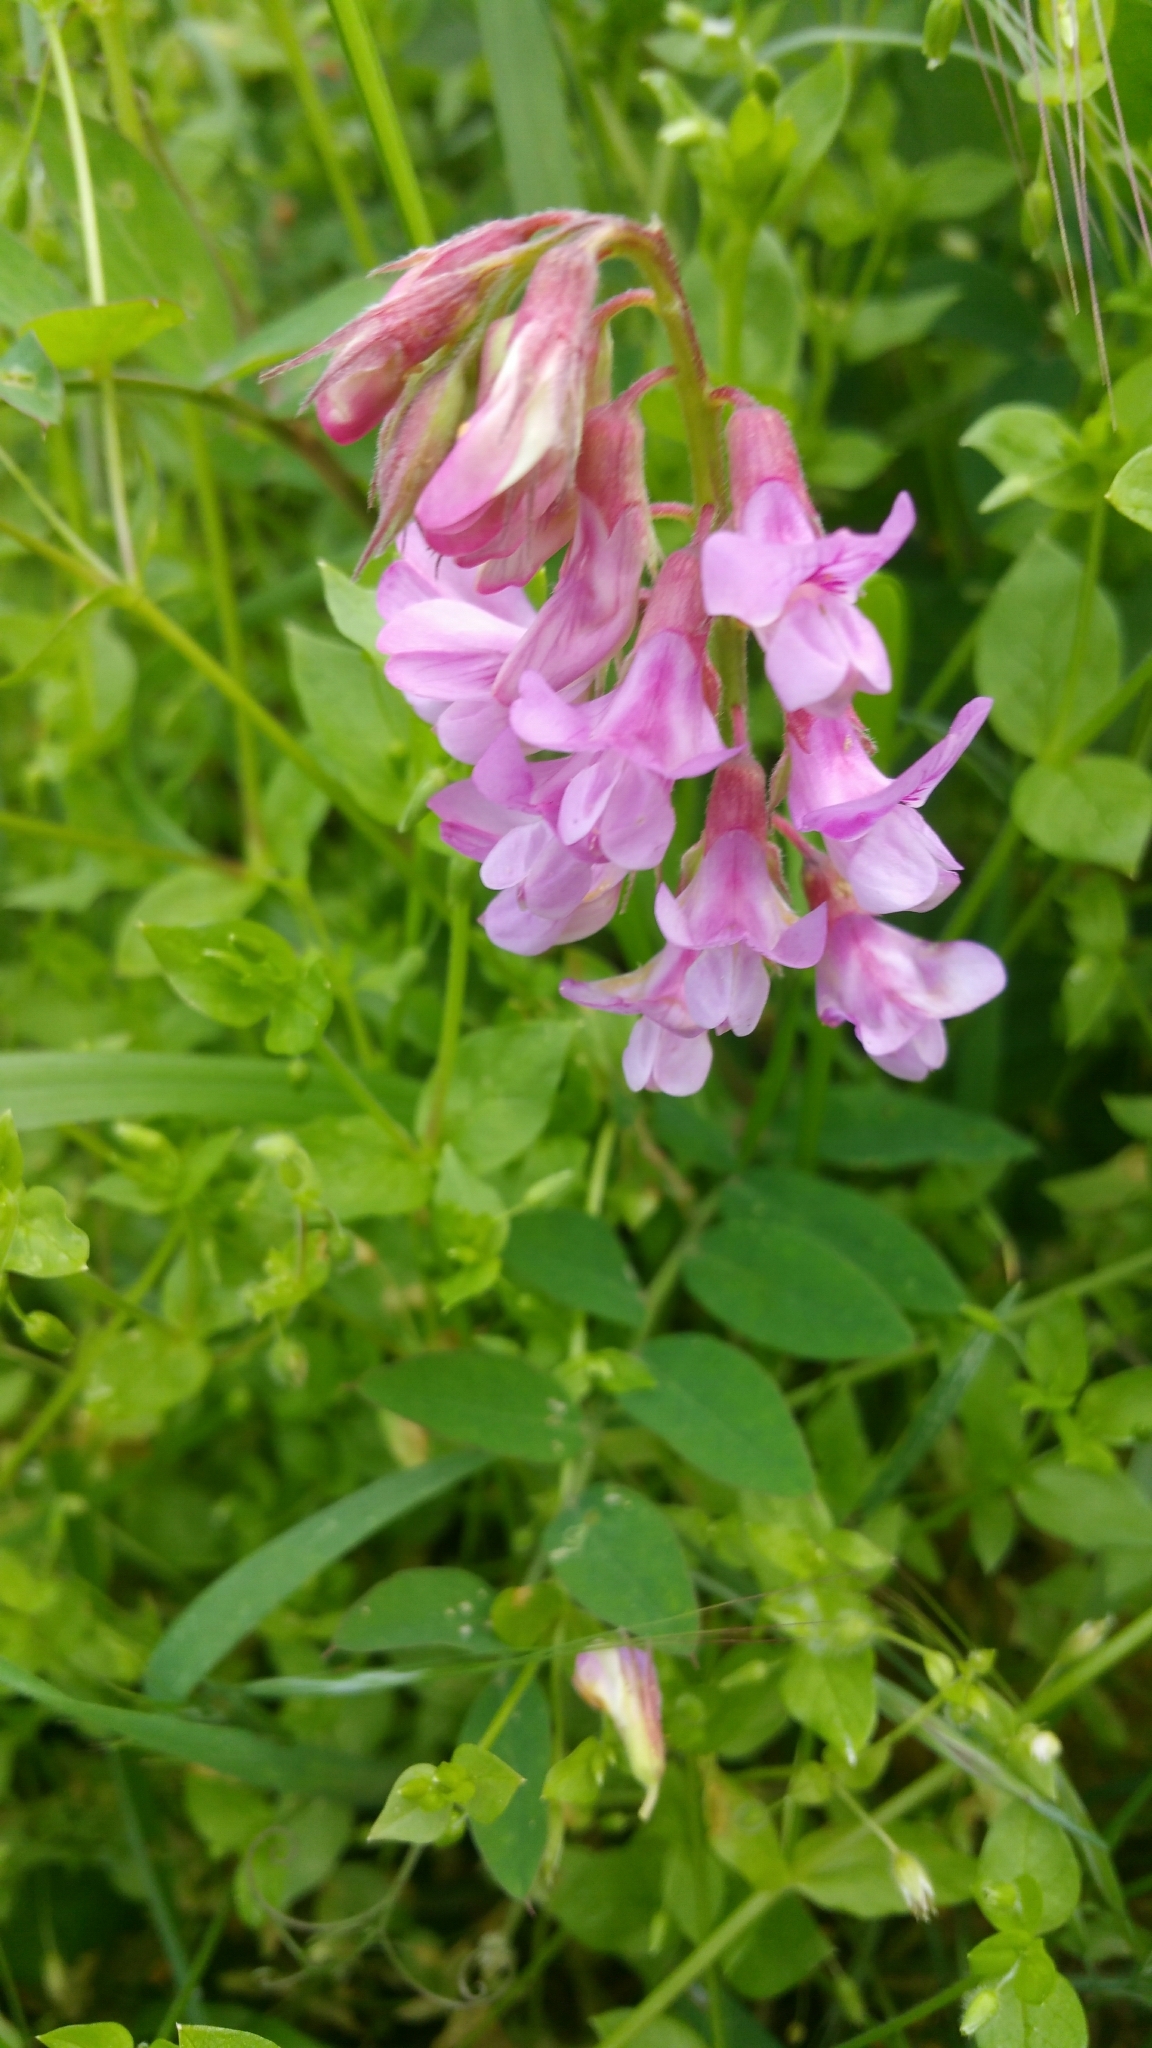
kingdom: Plantae
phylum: Tracheophyta
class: Magnoliopsida
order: Fabales
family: Fabaceae
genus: Lathyrus
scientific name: Lathyrus vestitus
